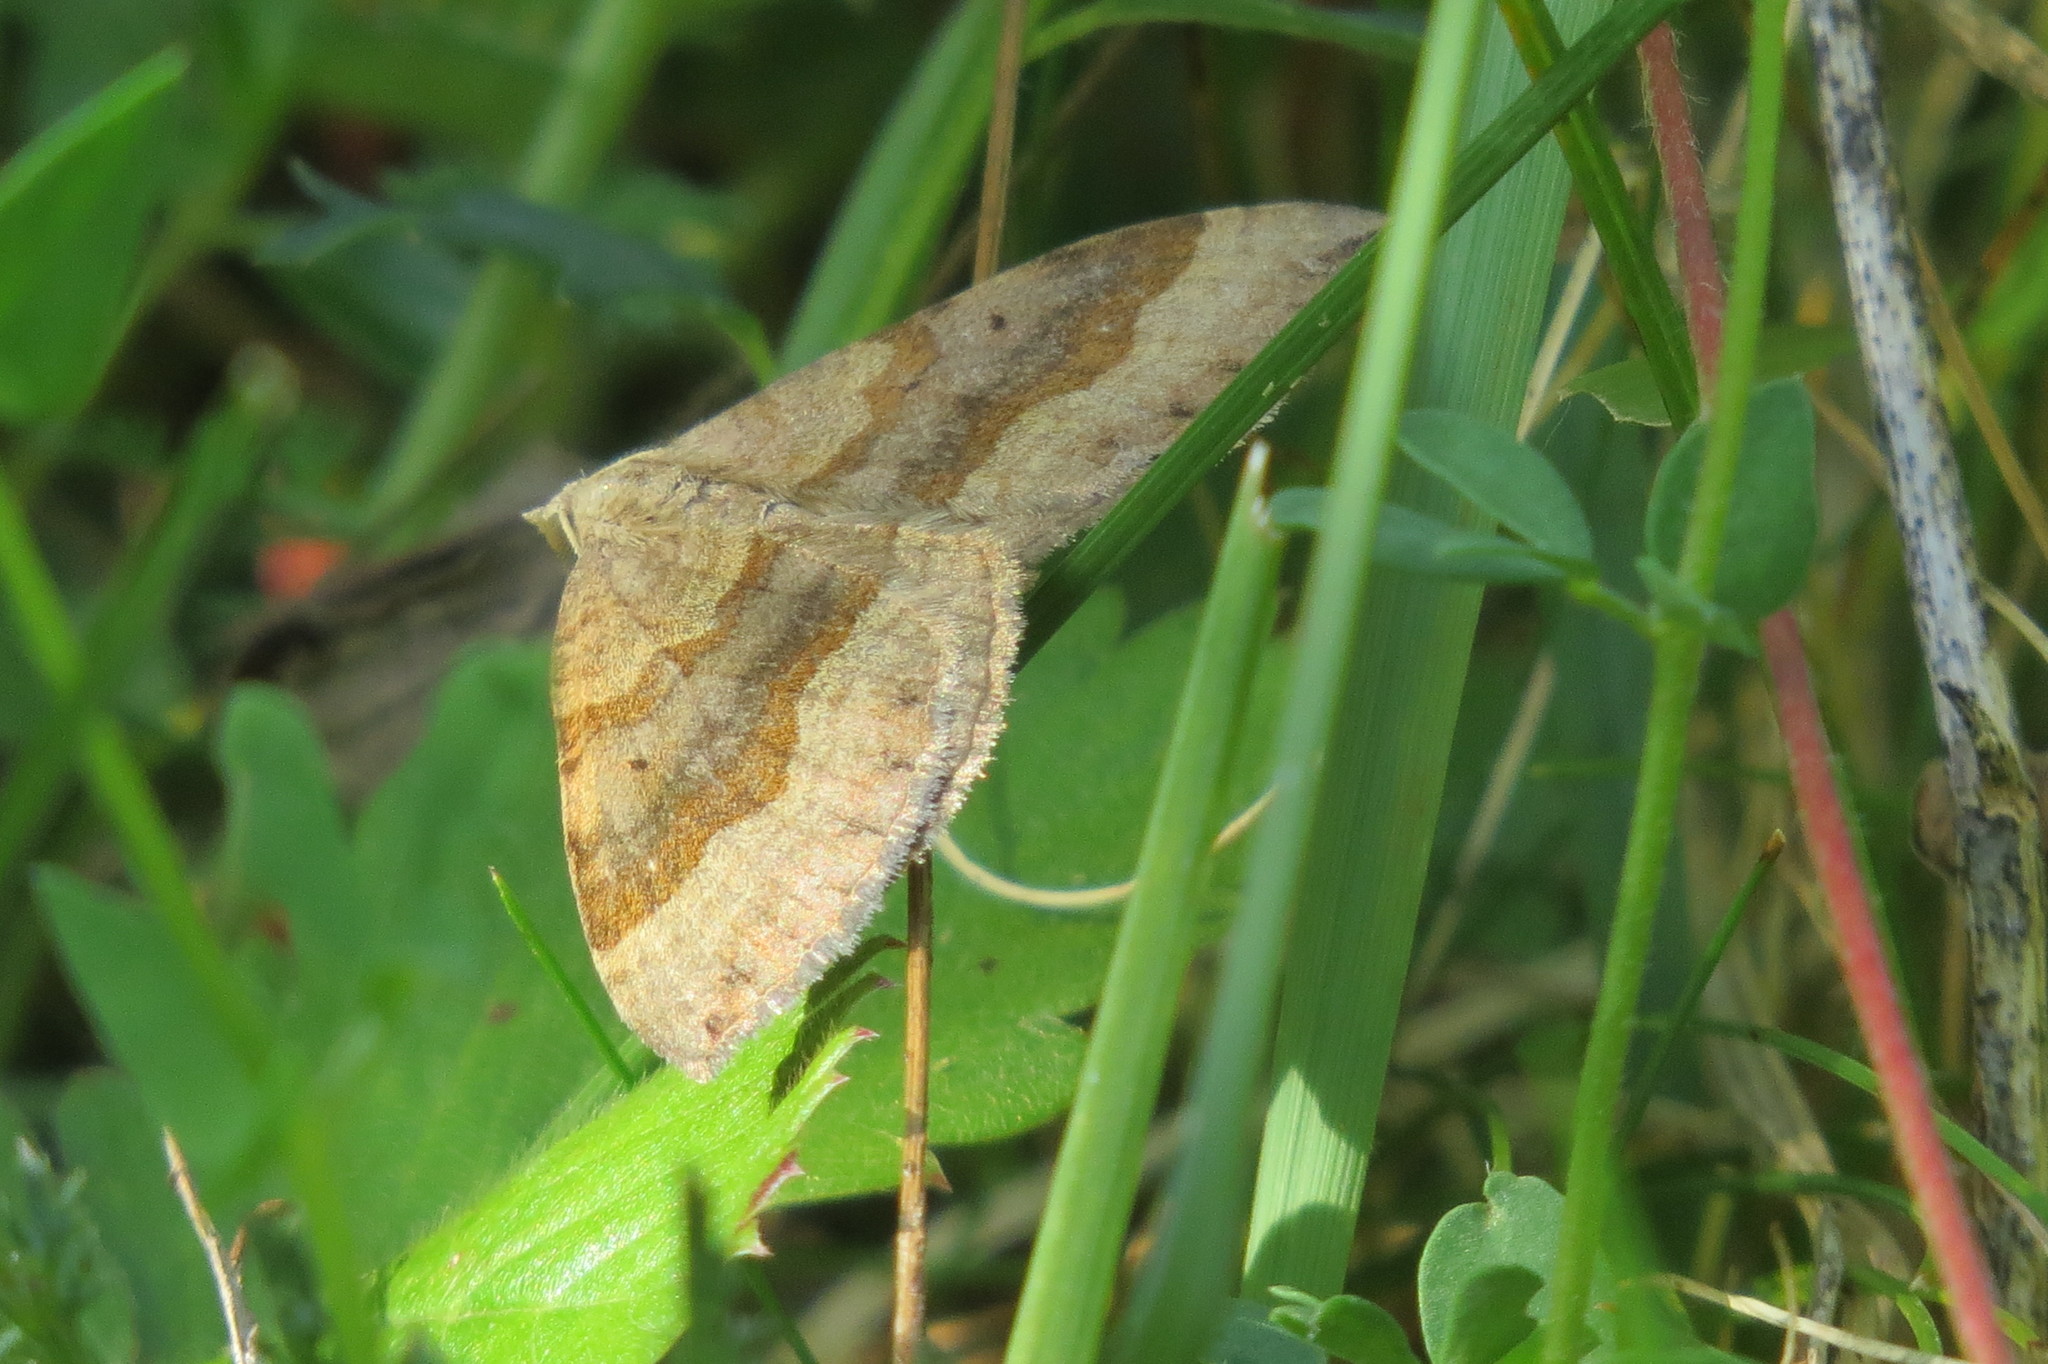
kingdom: Animalia
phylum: Arthropoda
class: Insecta
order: Lepidoptera
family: Geometridae
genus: Scotopteryx
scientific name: Scotopteryx chenopodiata
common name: Shaded broad-bar
